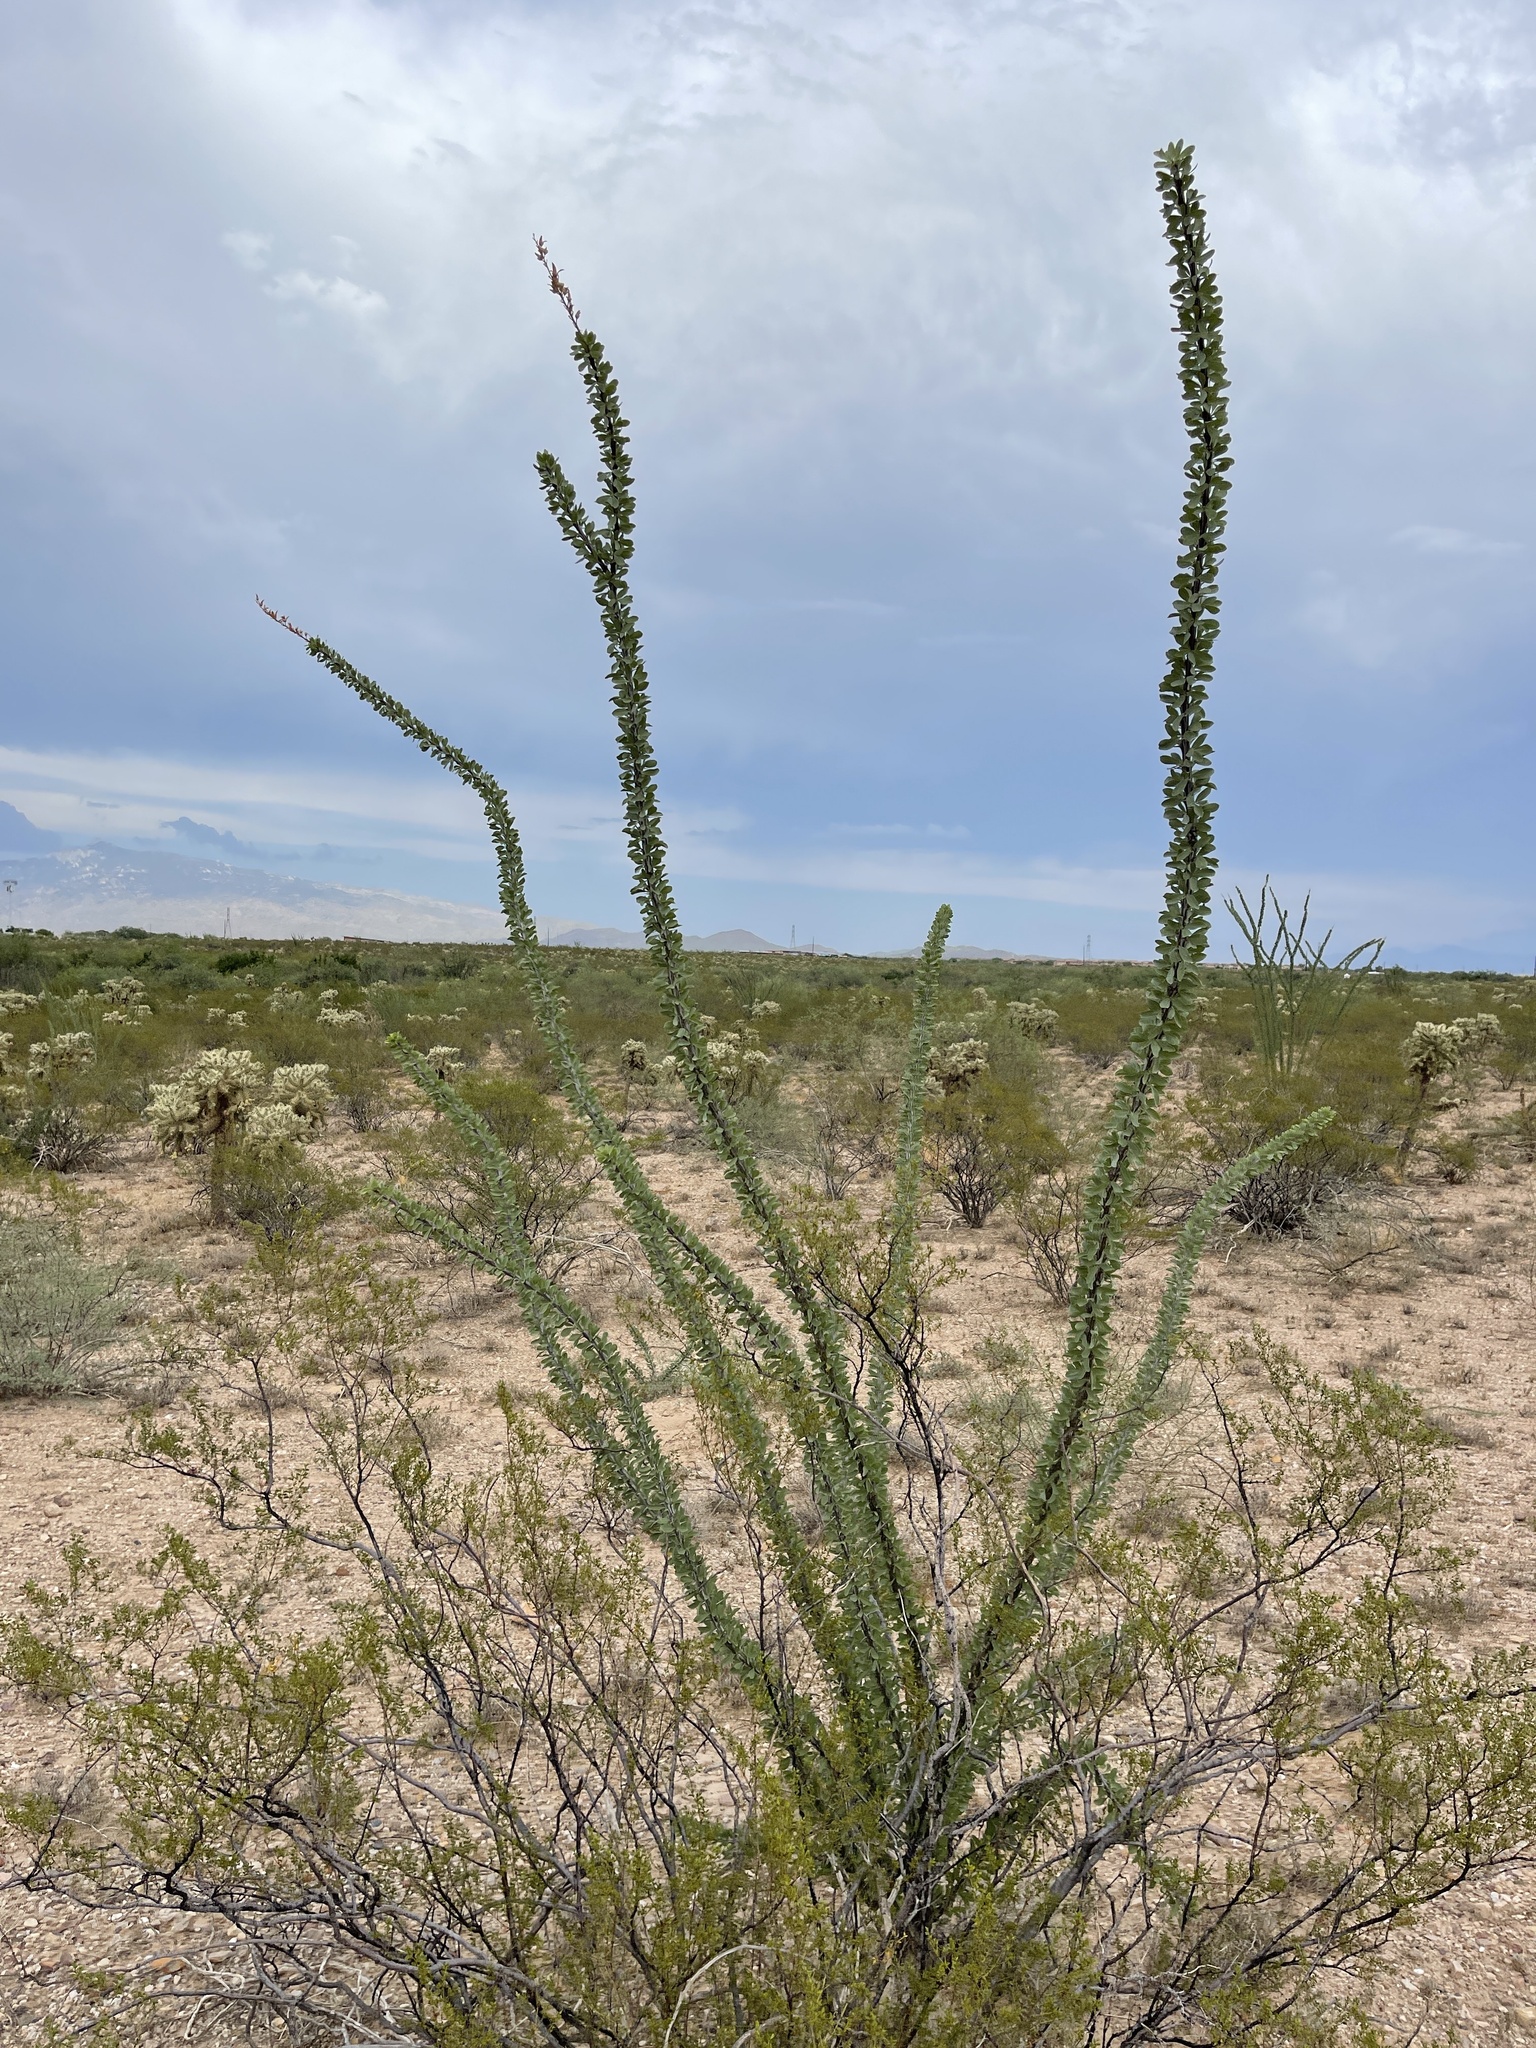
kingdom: Plantae
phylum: Tracheophyta
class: Magnoliopsida
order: Ericales
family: Fouquieriaceae
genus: Fouquieria
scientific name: Fouquieria splendens
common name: Vine-cactus
